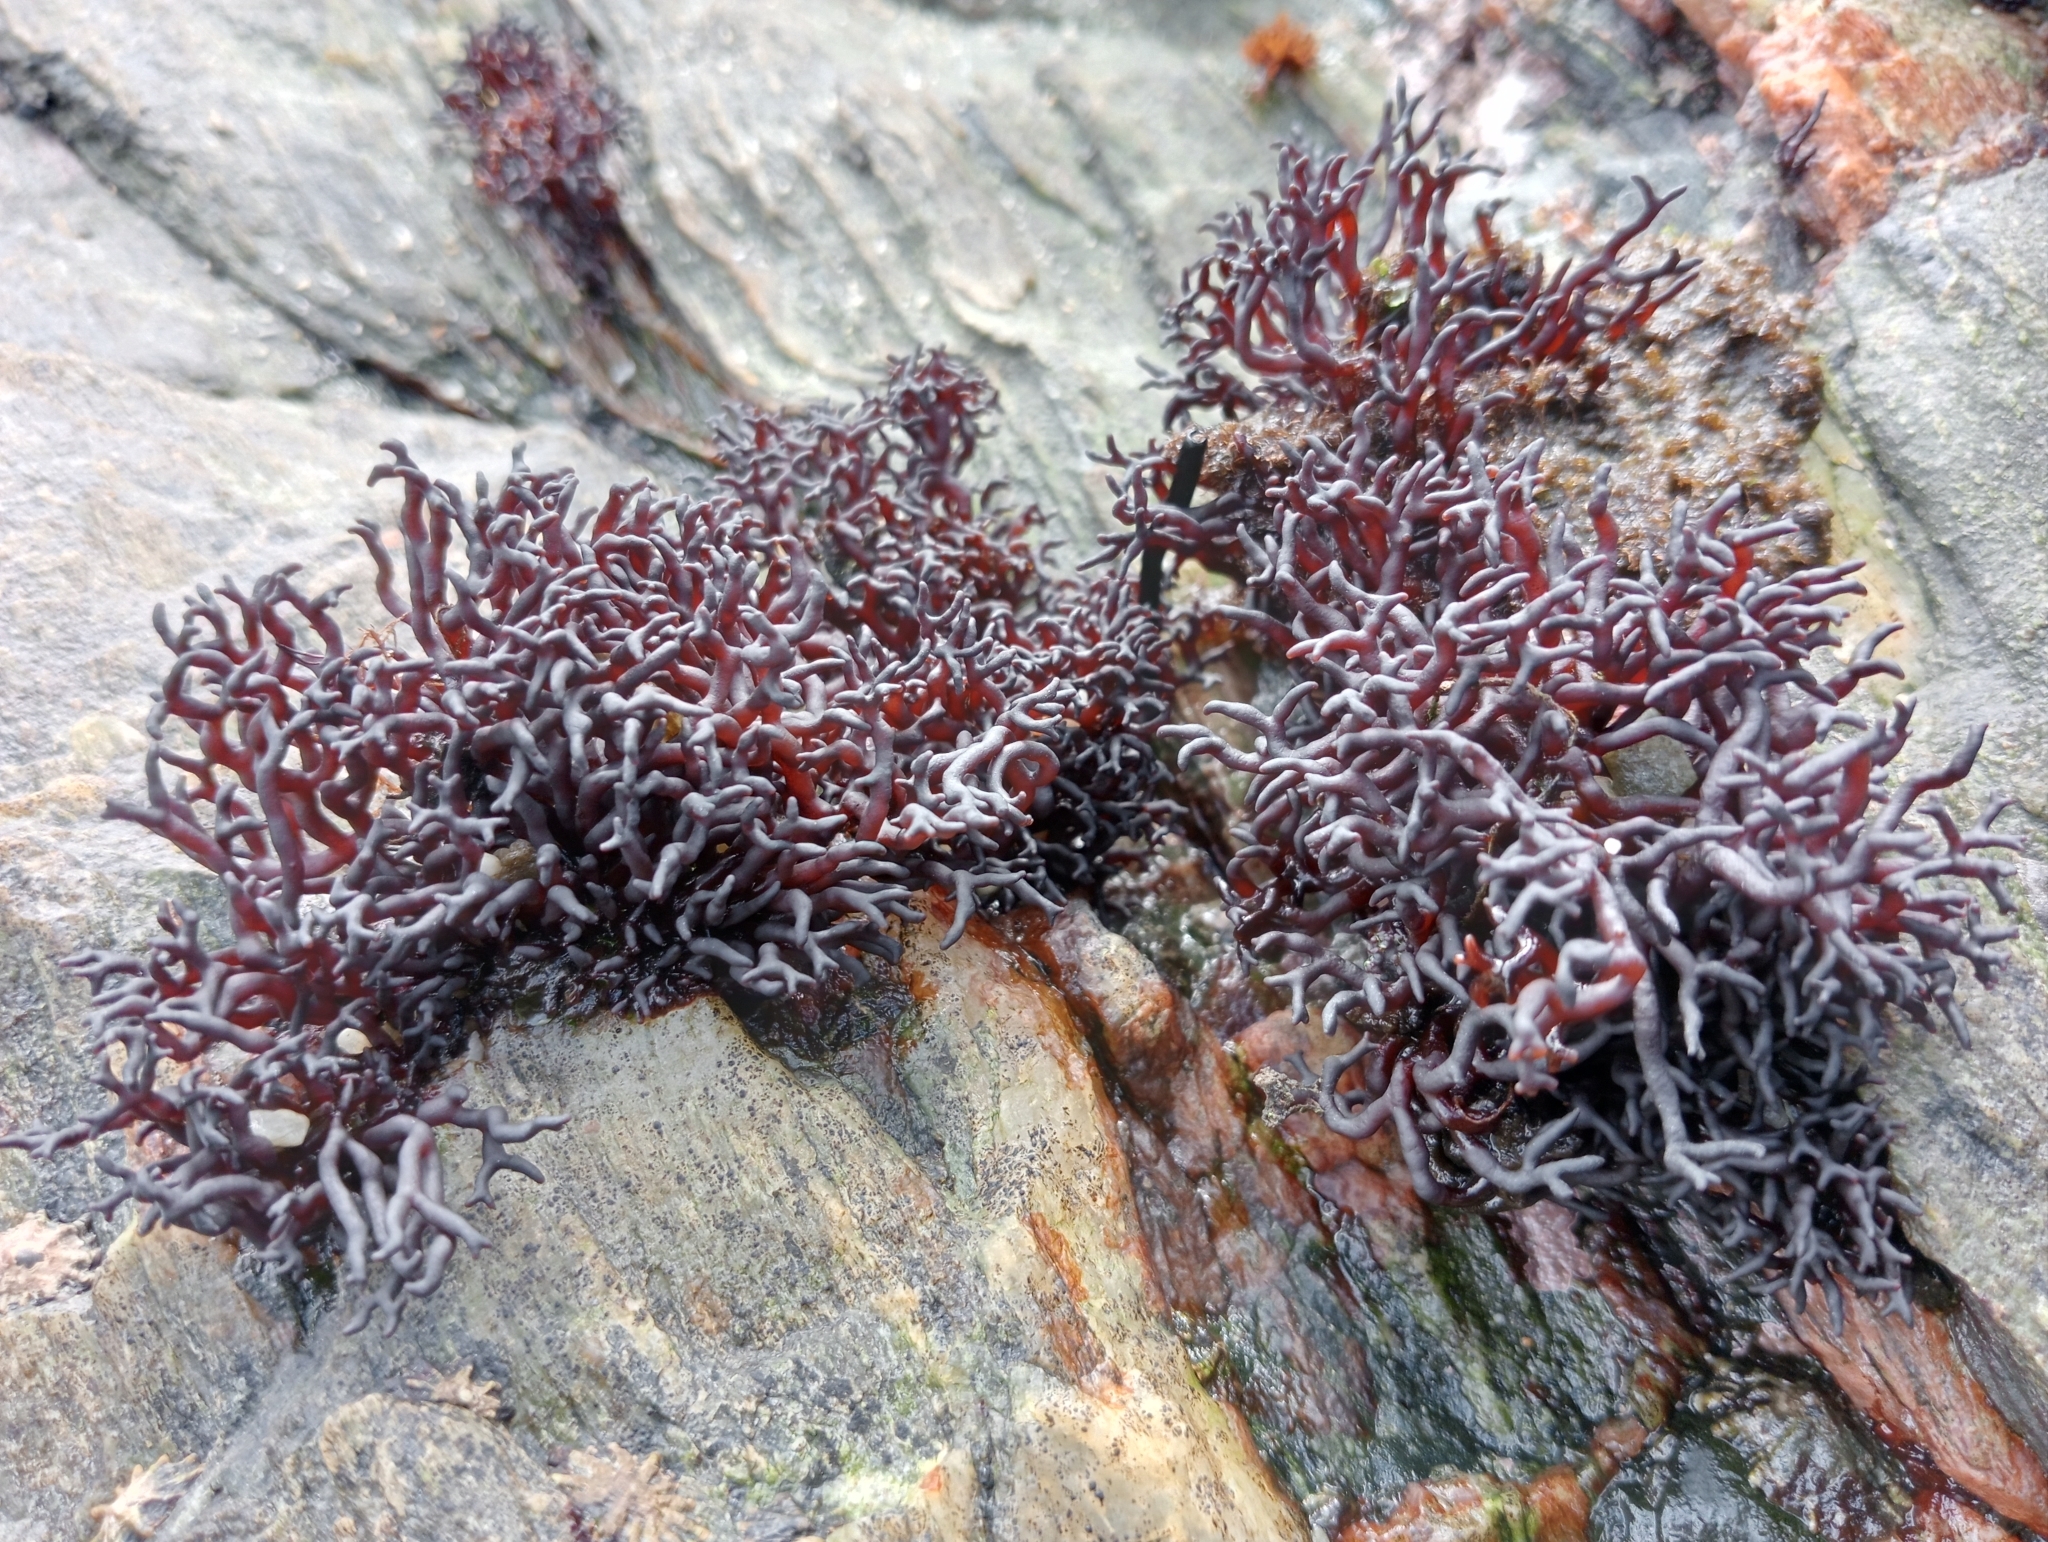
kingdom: Plantae
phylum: Rhodophyta
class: Florideophyceae
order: Hildenbrandiales
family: Hildenbrandiaceae
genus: Apophlaea
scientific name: Apophlaea lyallii
